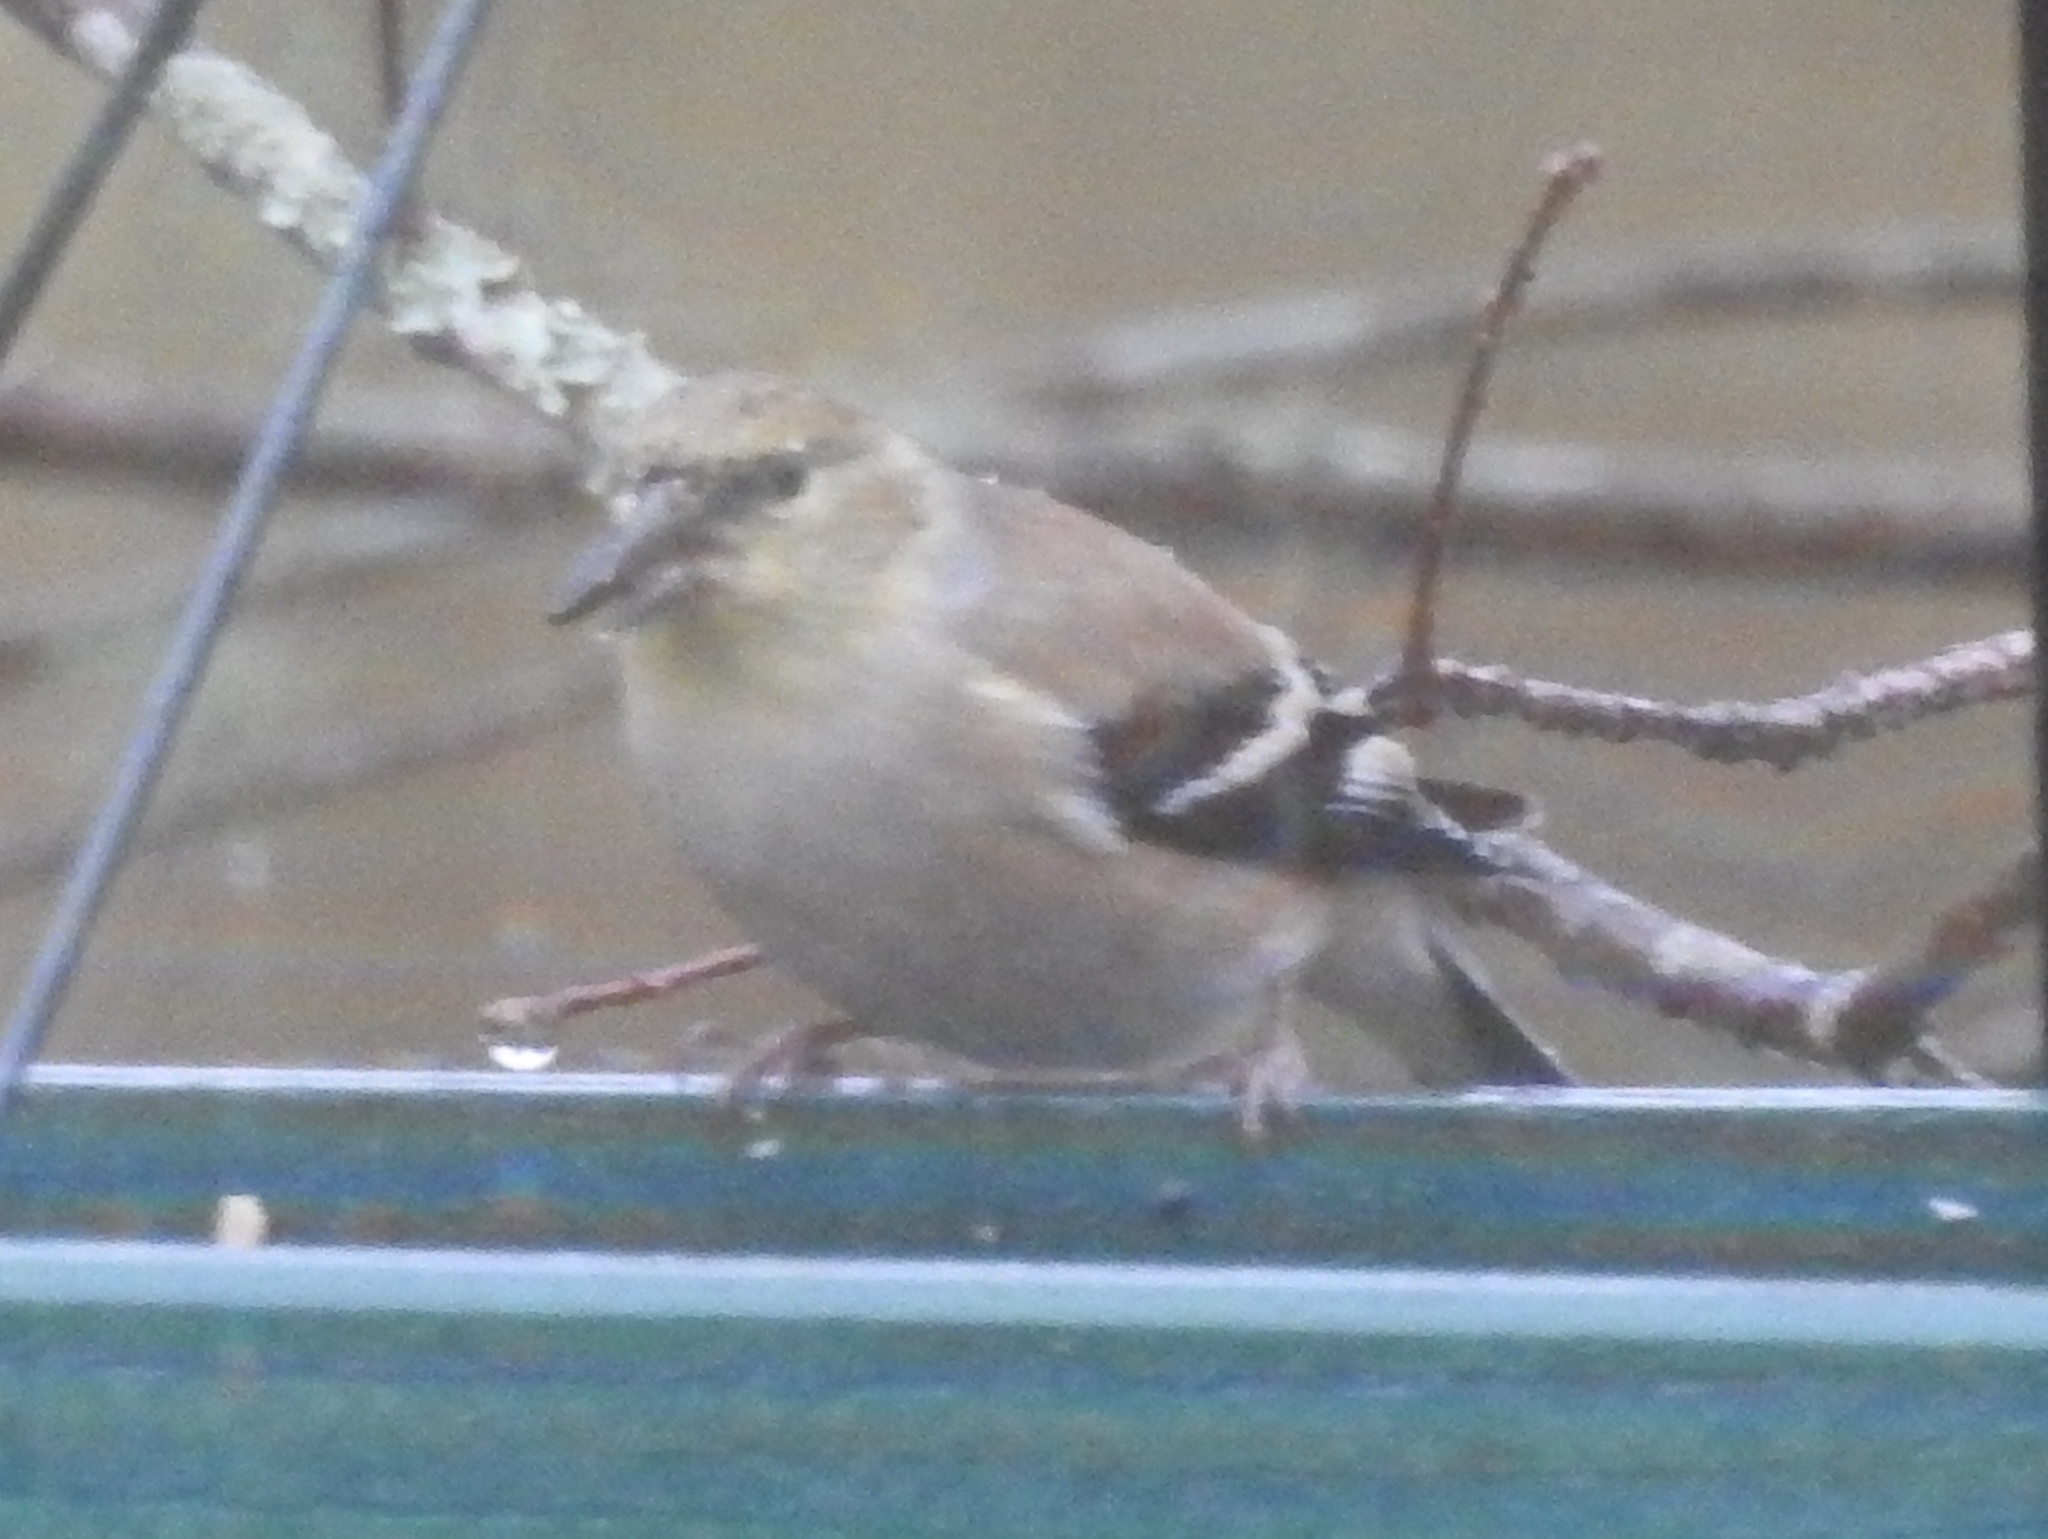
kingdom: Animalia
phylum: Chordata
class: Aves
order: Passeriformes
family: Fringillidae
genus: Spinus
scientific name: Spinus tristis
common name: American goldfinch
